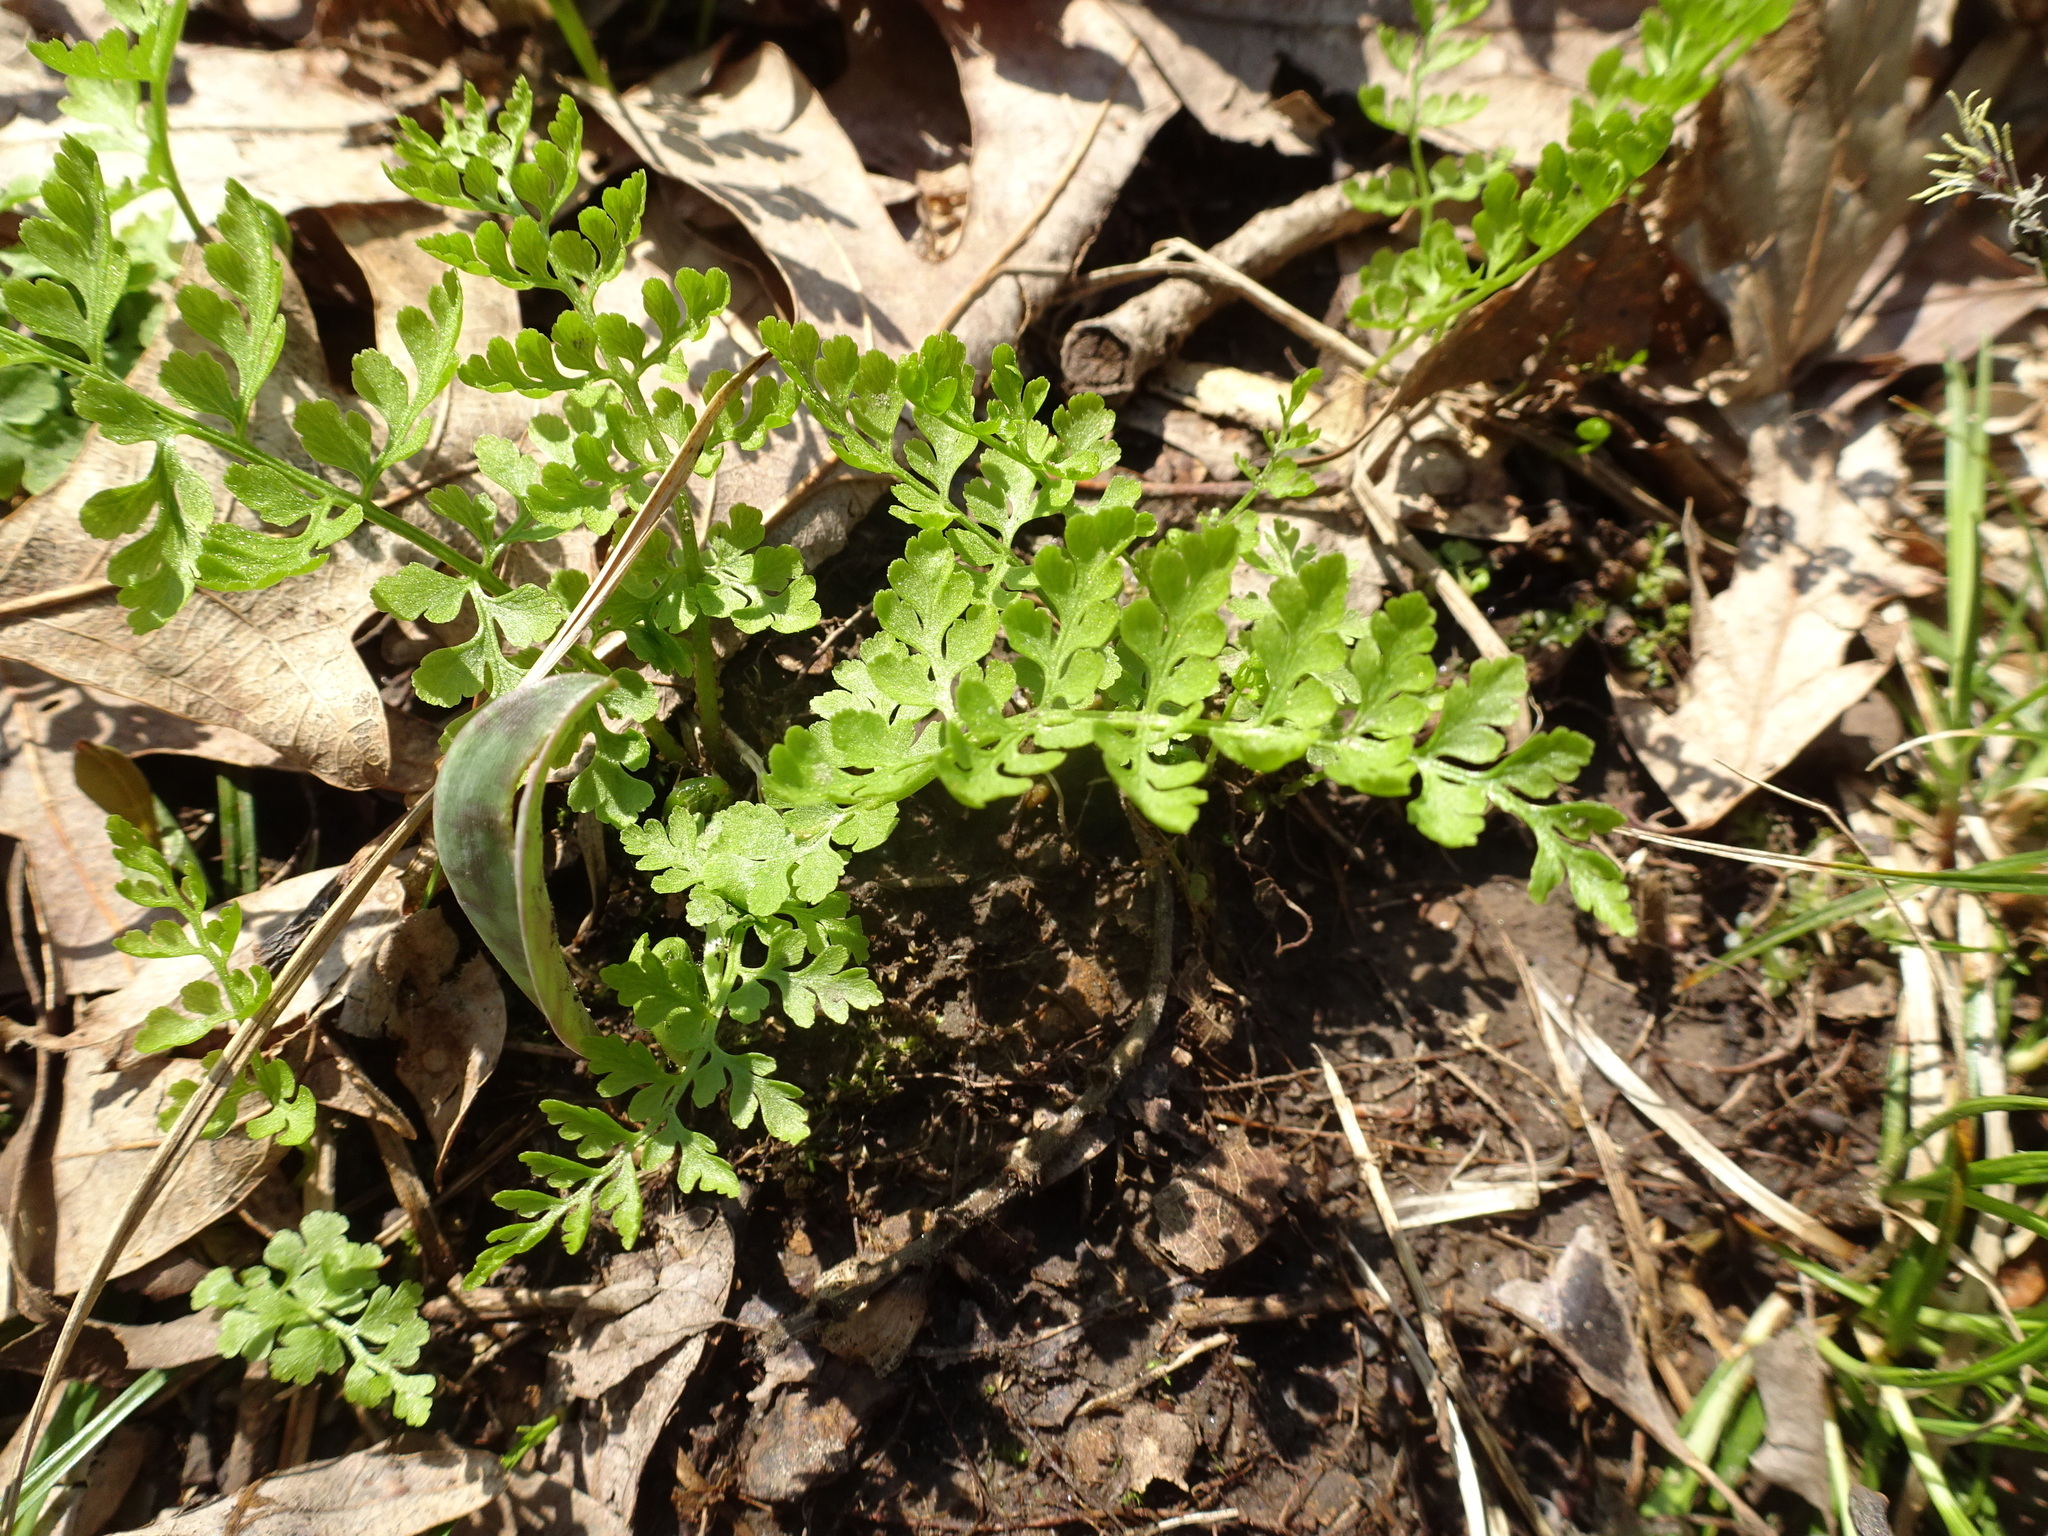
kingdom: Plantae
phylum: Tracheophyta
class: Polypodiopsida
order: Polypodiales
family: Cystopteridaceae
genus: Cystopteris
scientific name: Cystopteris protrusa
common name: Lowland brittle fern
